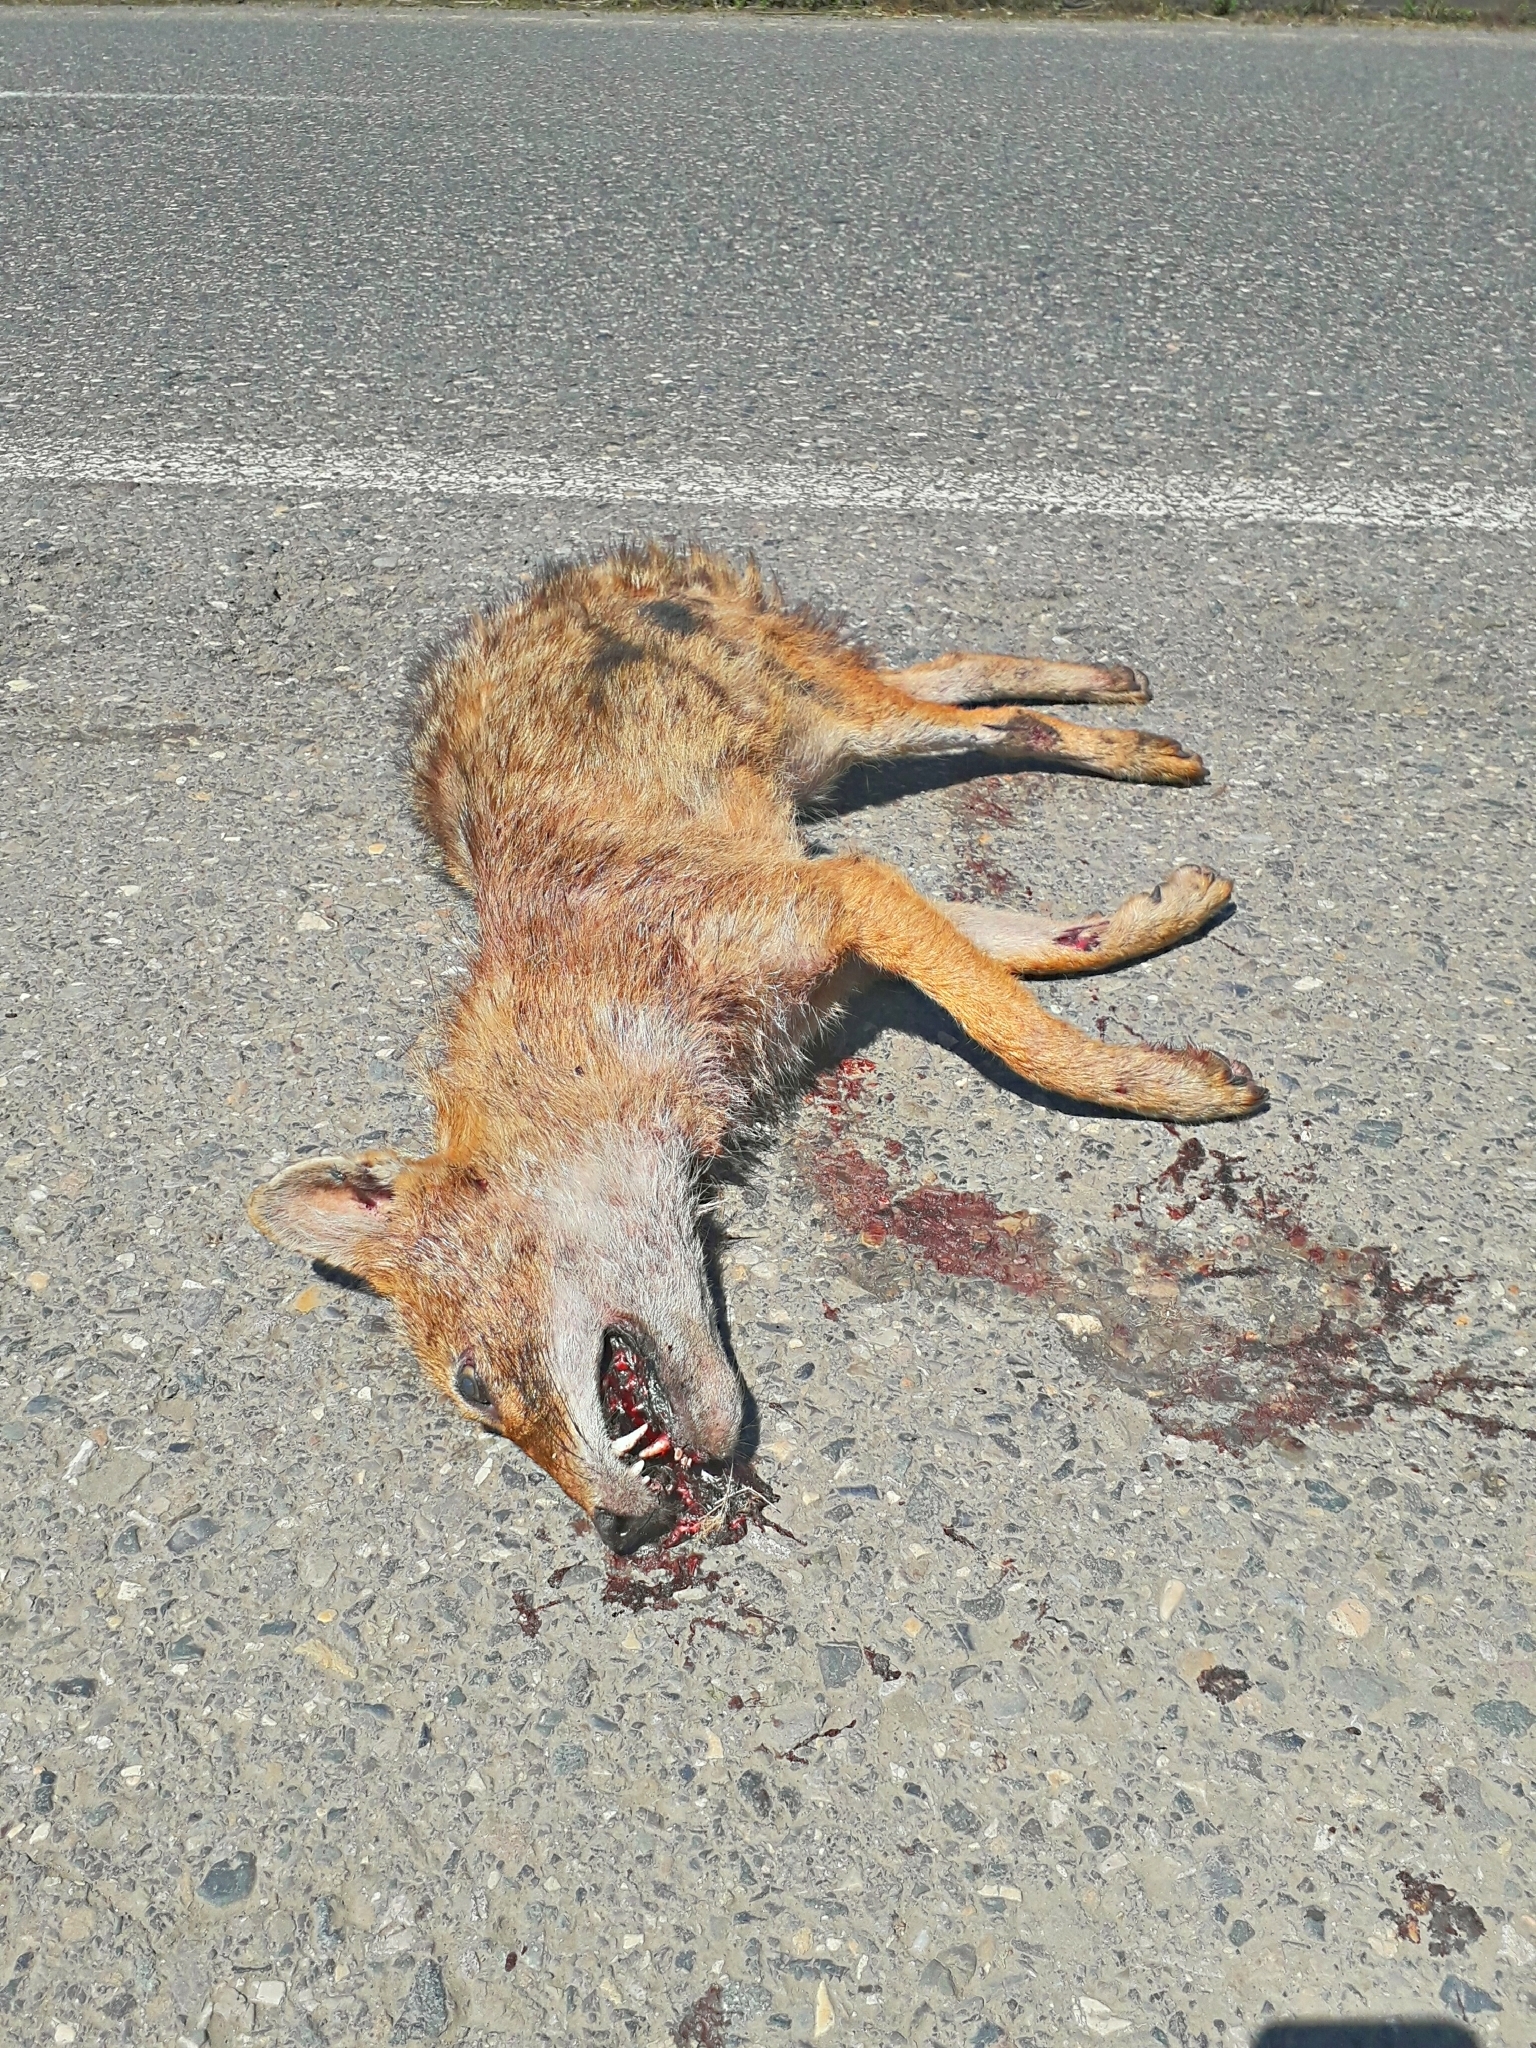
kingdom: Animalia
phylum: Chordata
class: Mammalia
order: Carnivora
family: Canidae
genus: Canis
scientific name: Canis aureus
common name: Golden jackal
